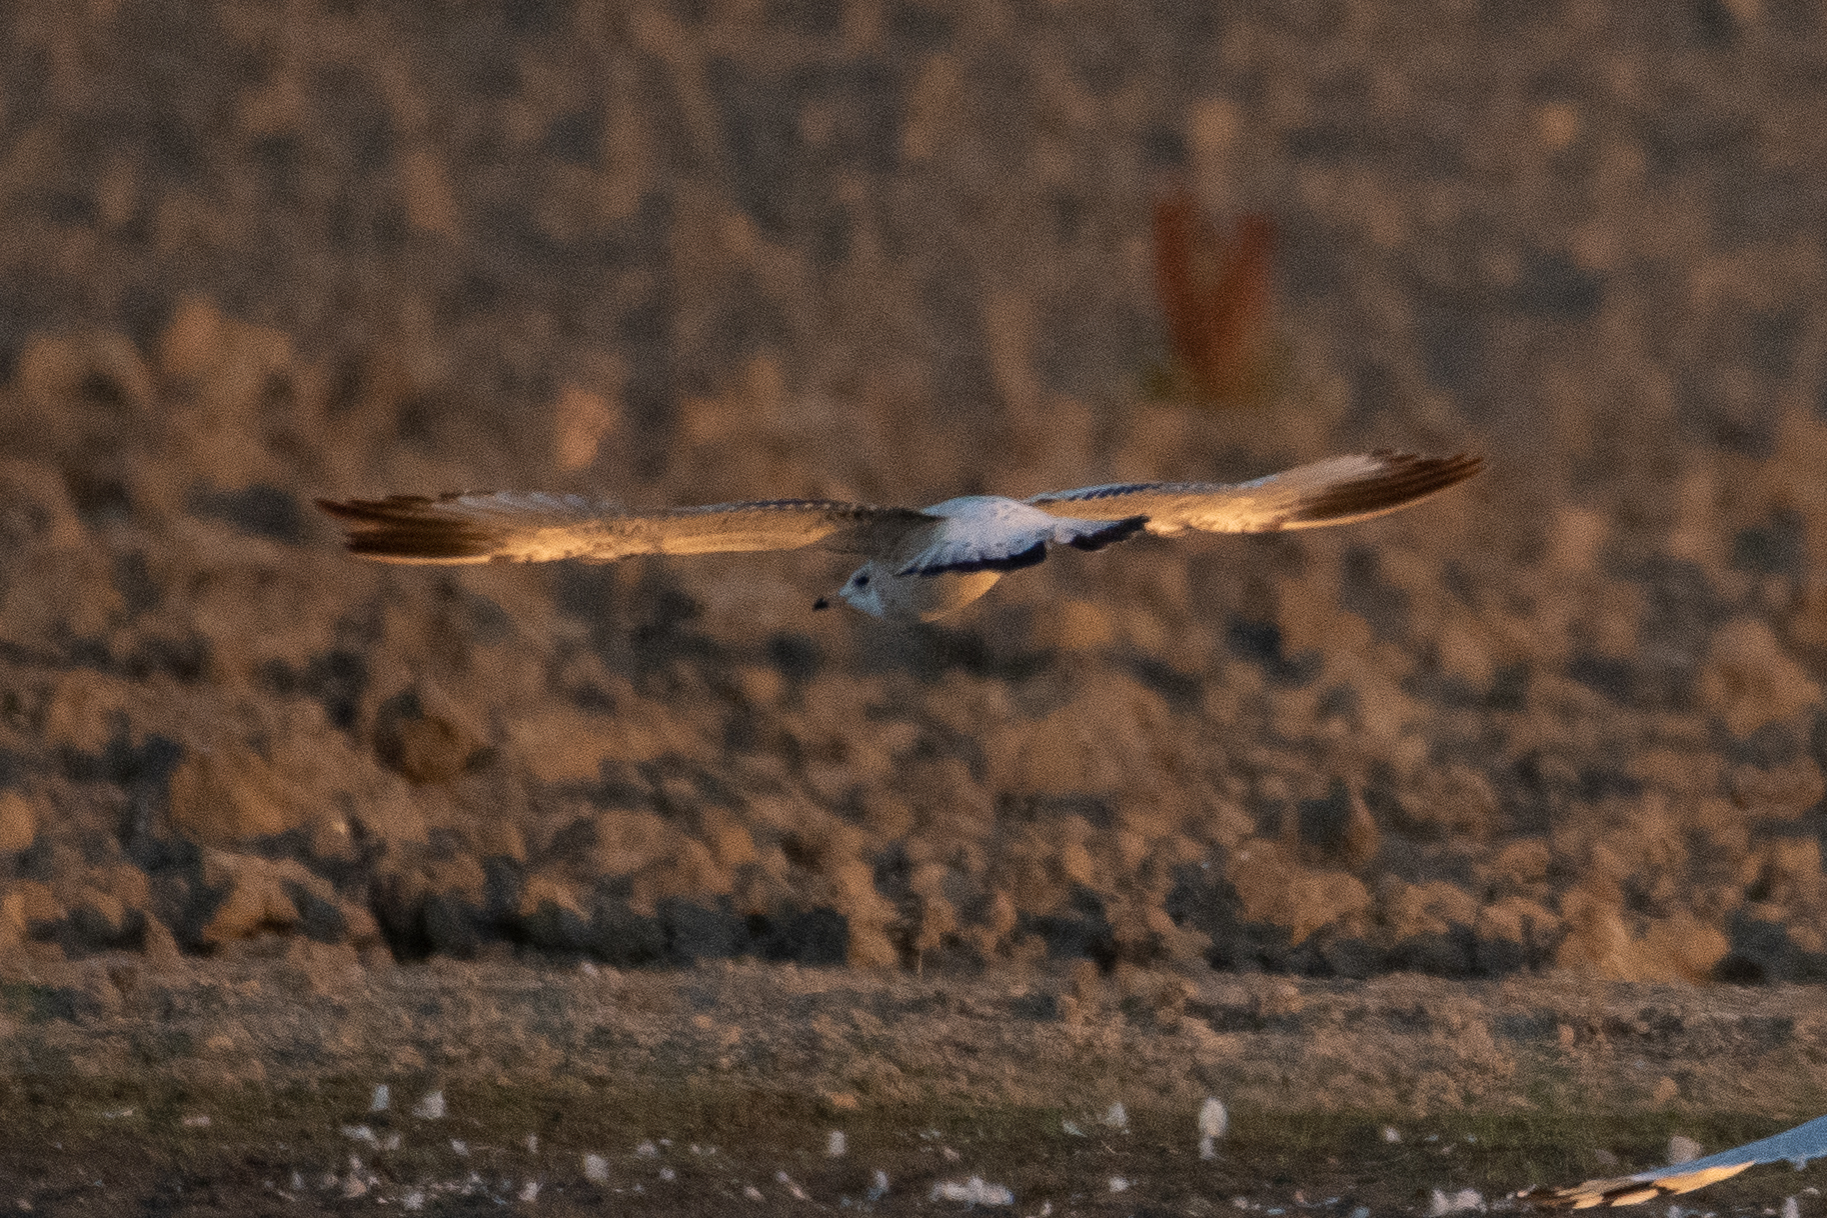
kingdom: Animalia
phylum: Chordata
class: Aves
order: Charadriiformes
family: Laridae
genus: Larus
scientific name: Larus delawarensis
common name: Ring-billed gull
